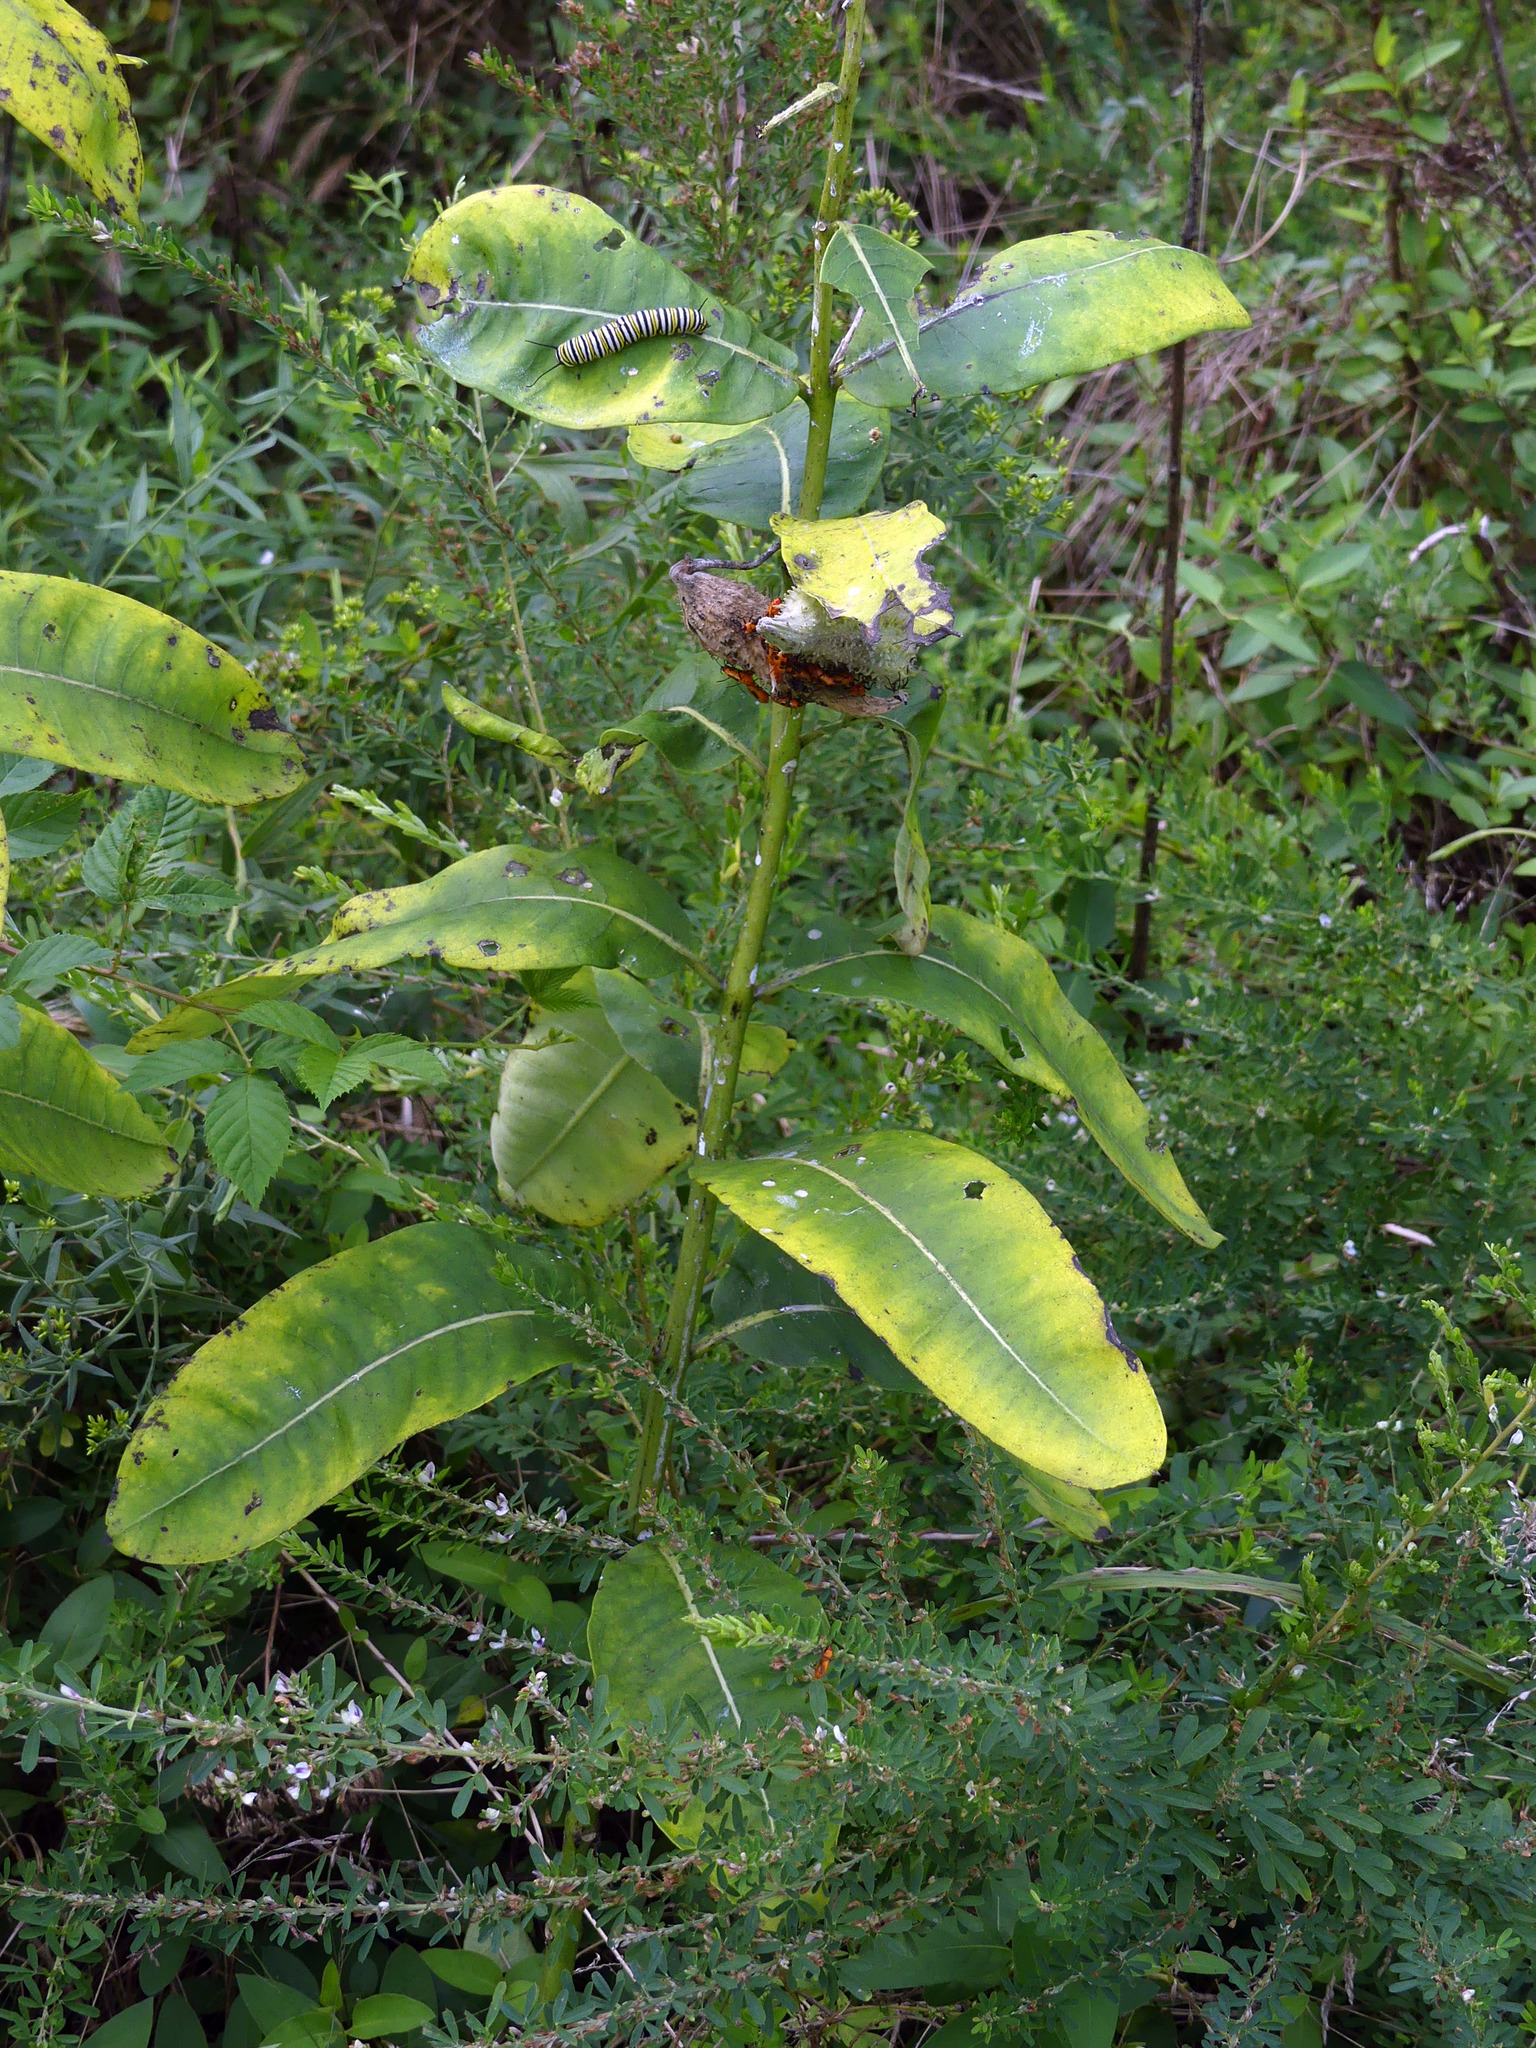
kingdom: Animalia
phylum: Arthropoda
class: Insecta
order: Lepidoptera
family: Nymphalidae
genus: Danaus
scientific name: Danaus plexippus
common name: Monarch
